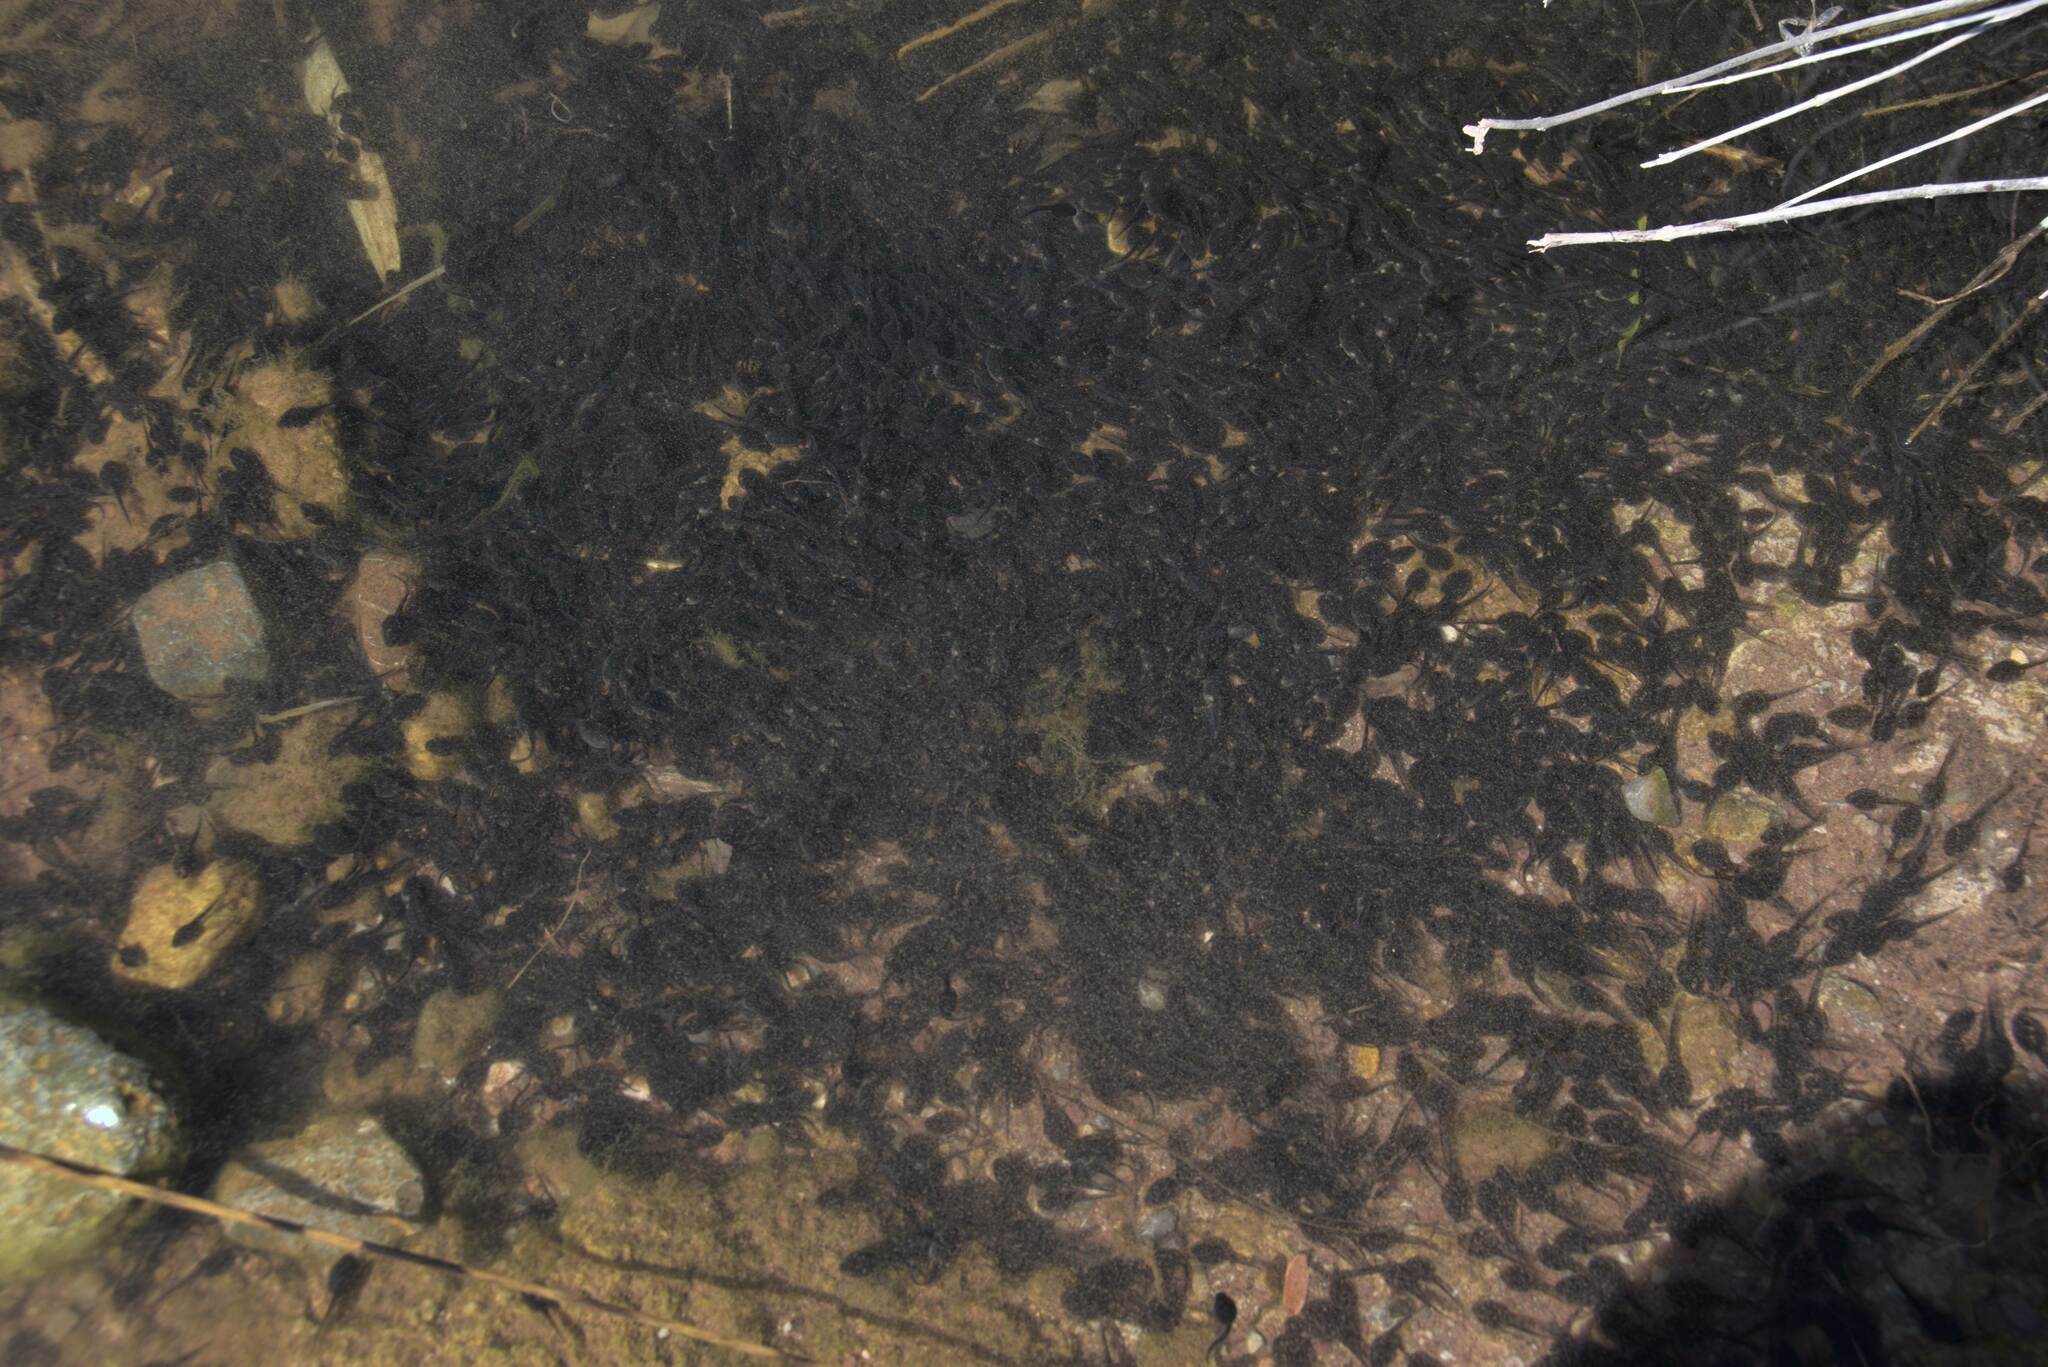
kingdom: Animalia
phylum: Chordata
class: Amphibia
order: Anura
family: Bufonidae
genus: Bufotes
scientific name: Bufotes viridis
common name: European green toad
